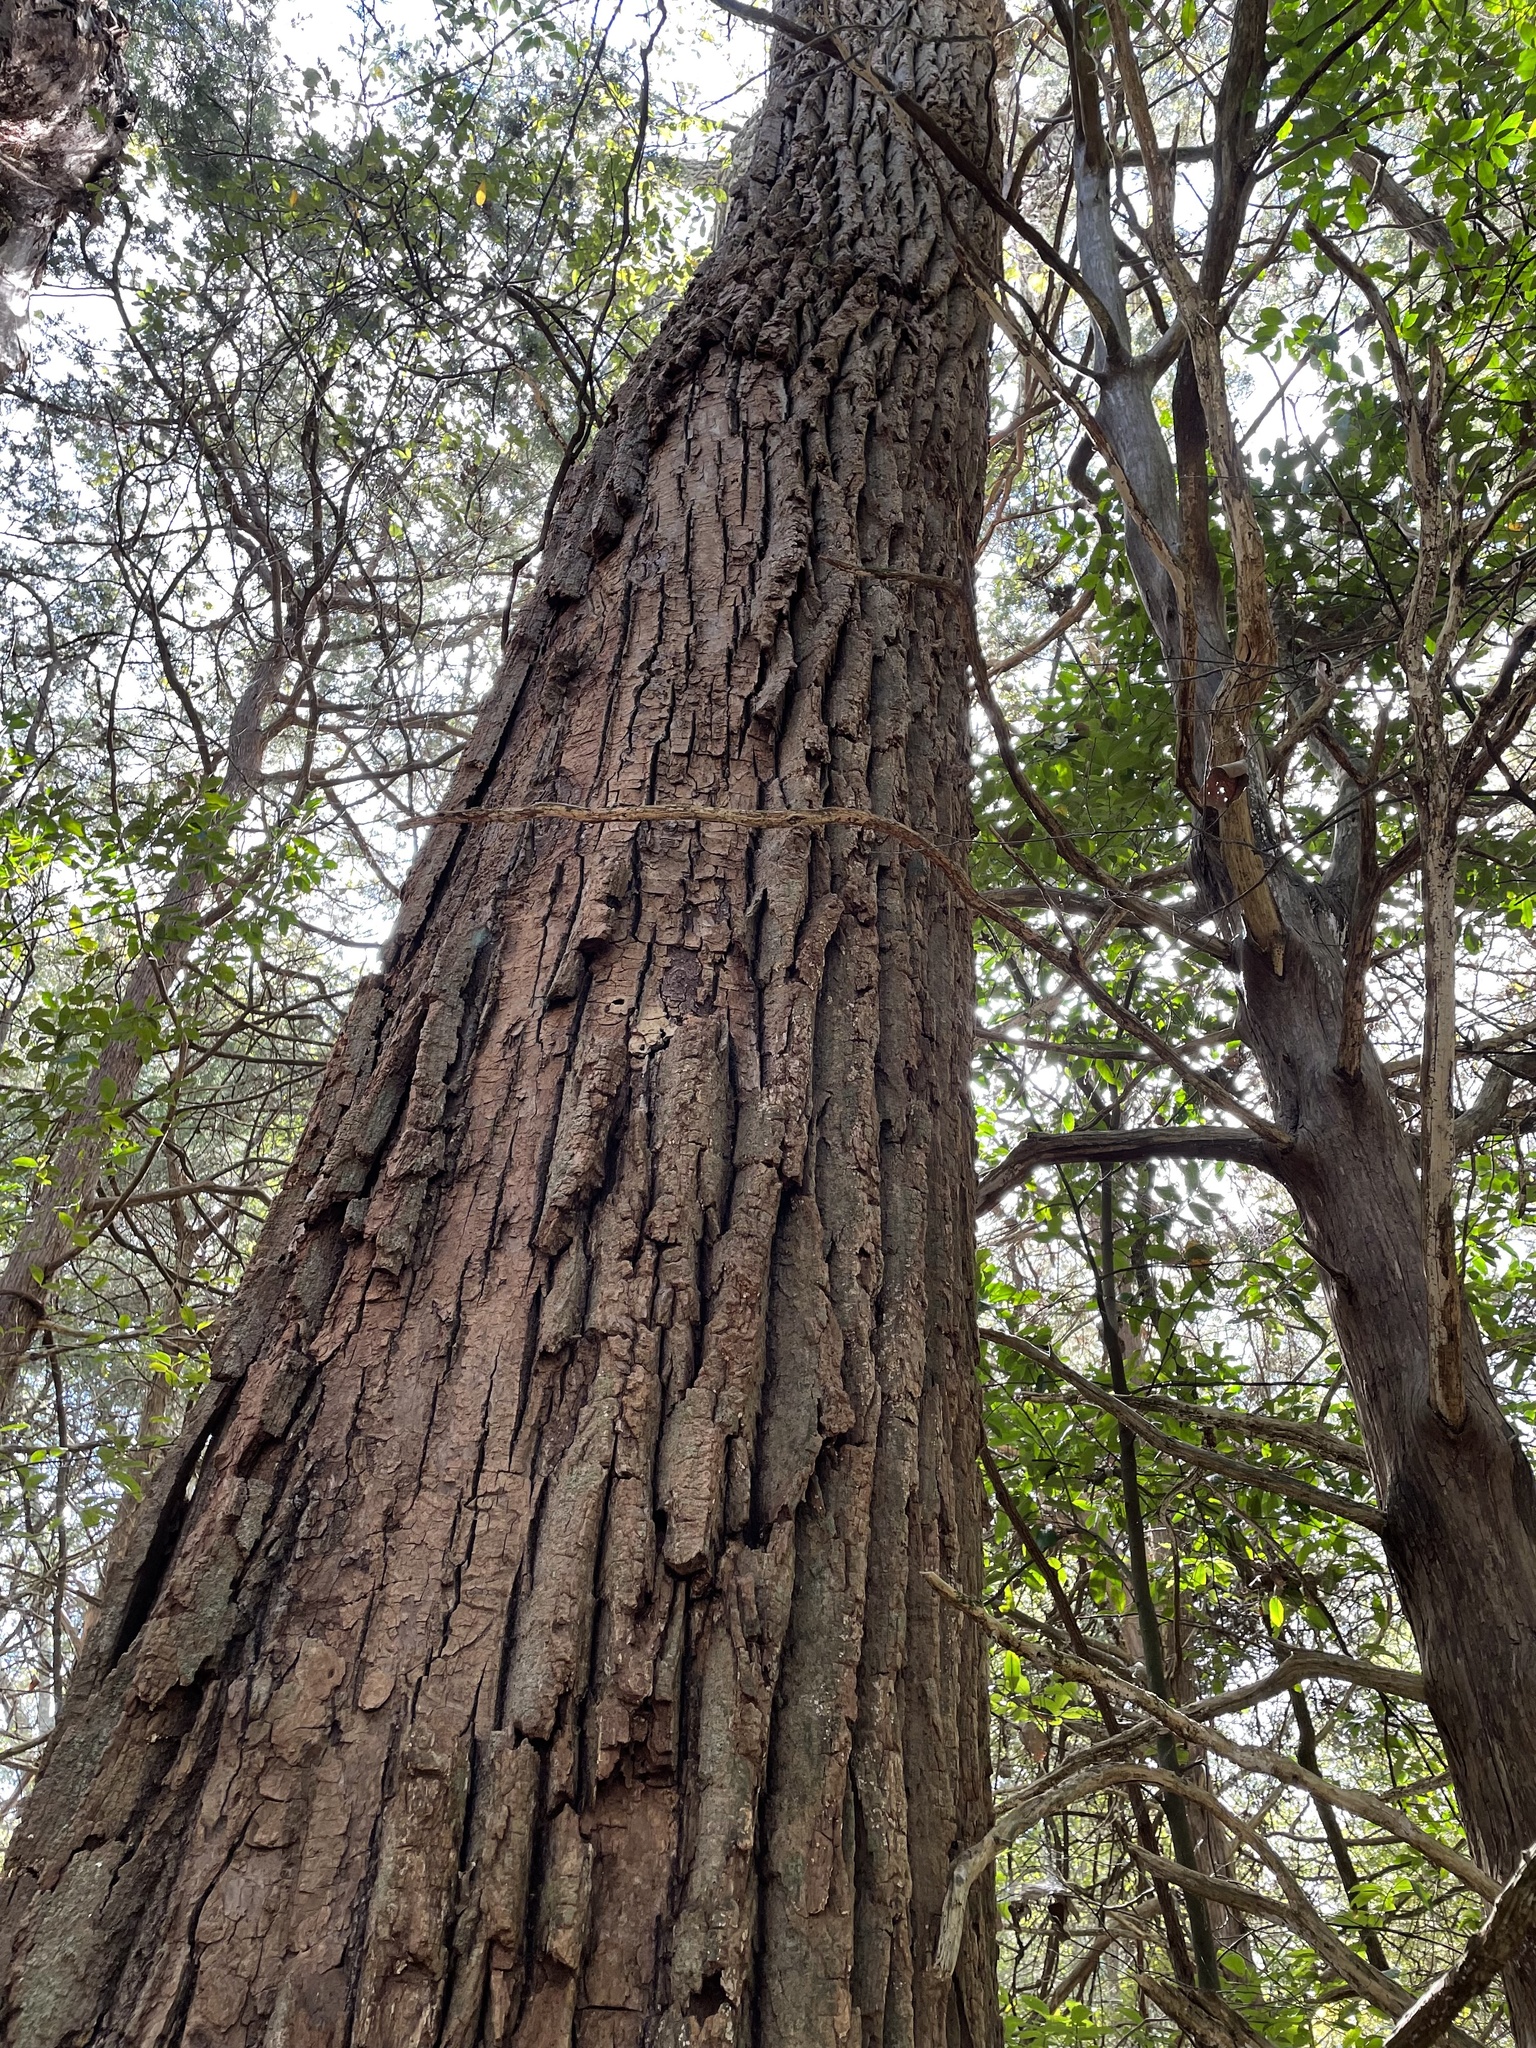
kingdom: Plantae
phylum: Tracheophyta
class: Magnoliopsida
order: Malpighiales
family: Salicaceae
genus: Populus
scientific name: Populus deltoides
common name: Eastern cottonwood
